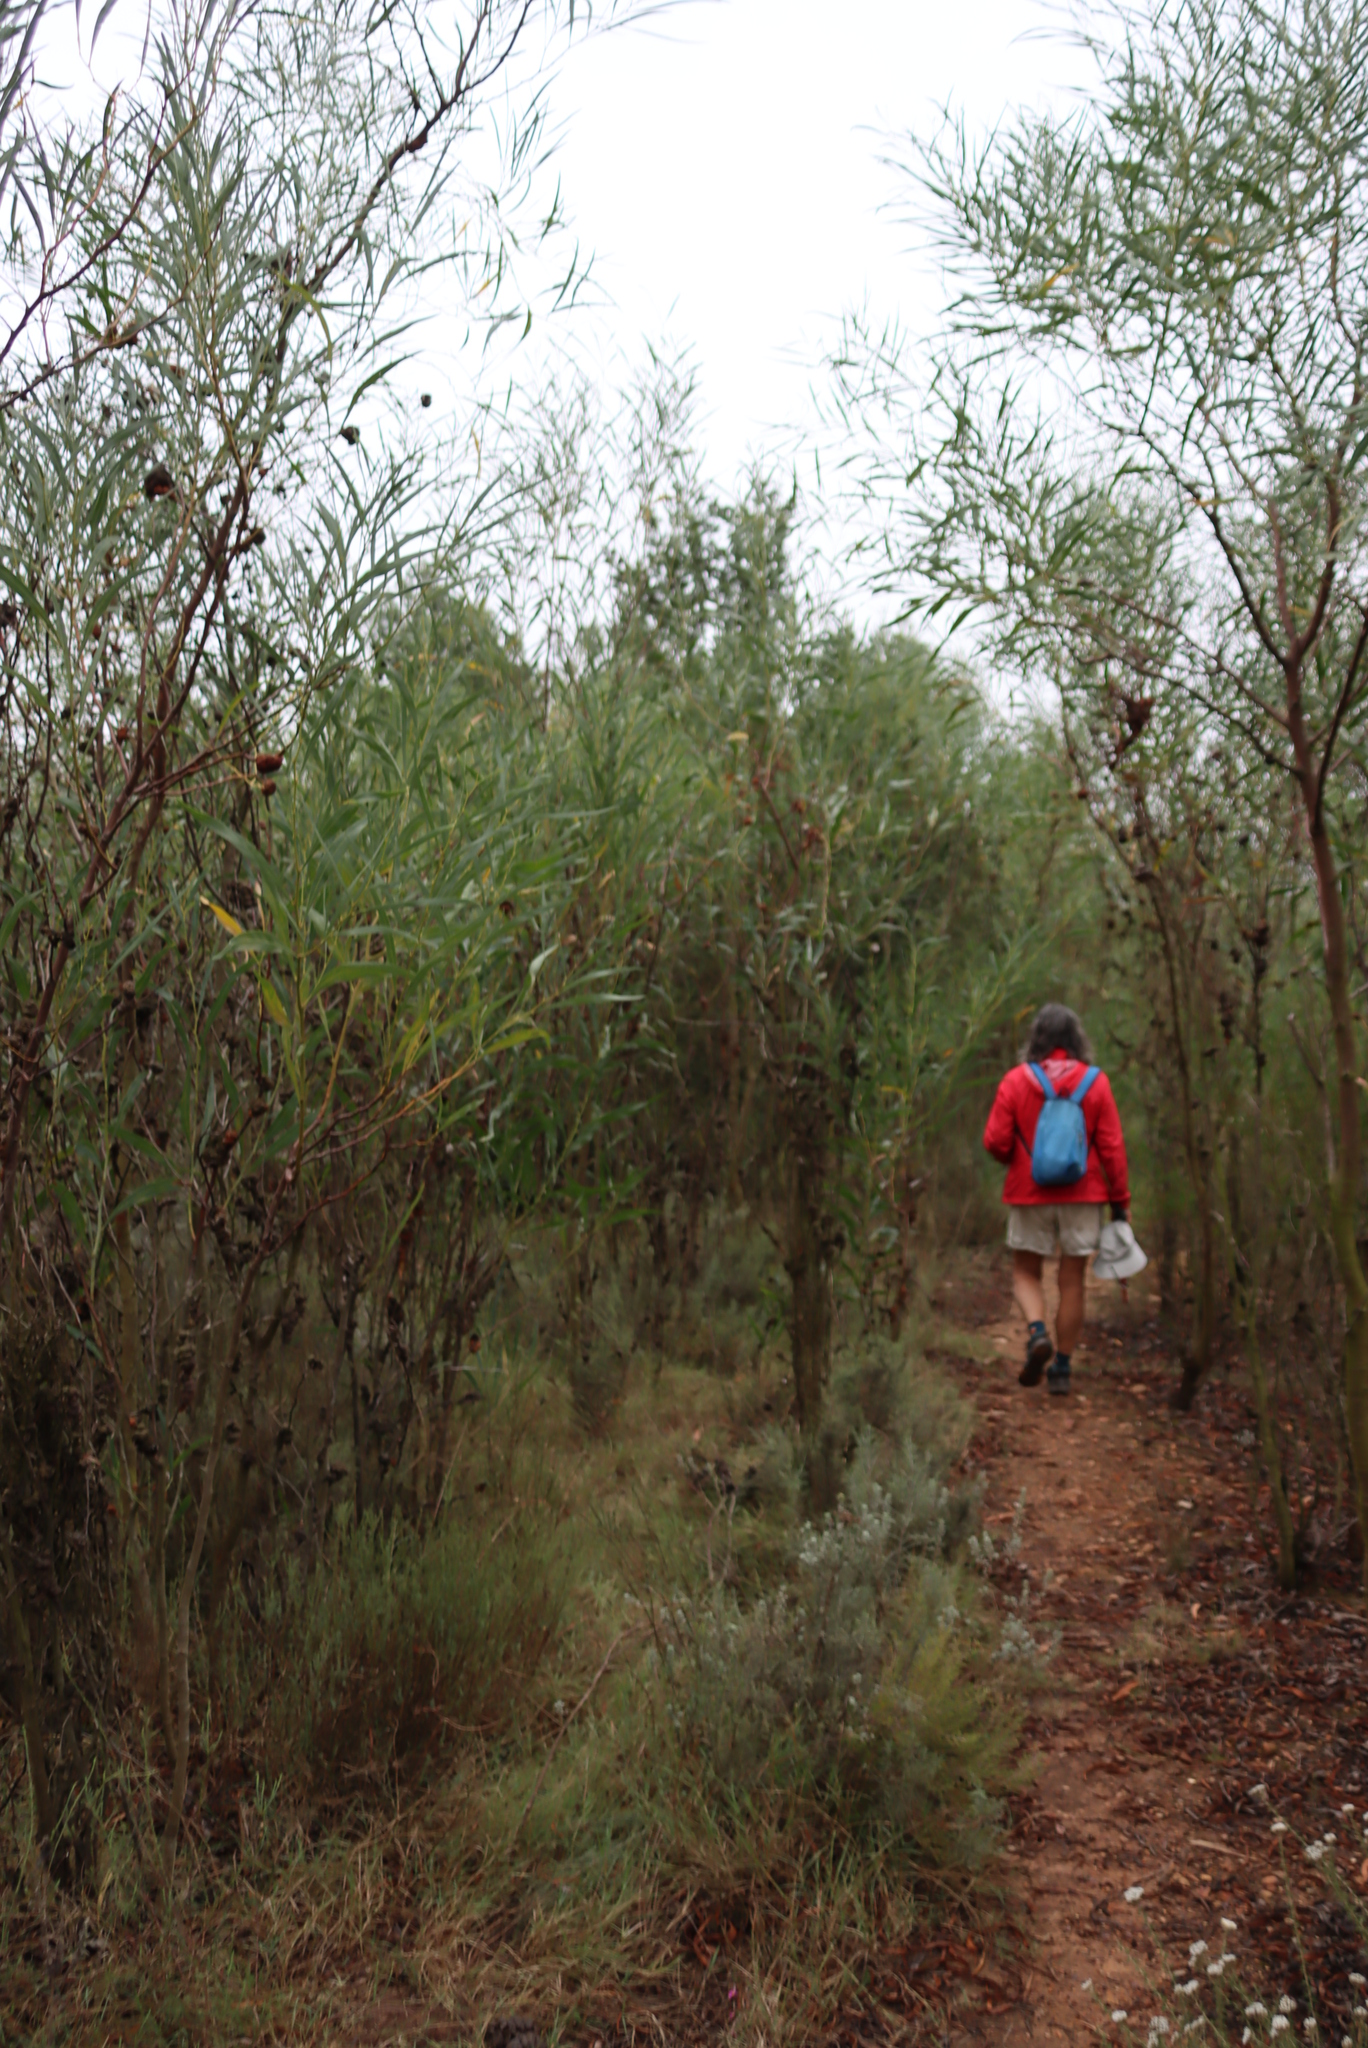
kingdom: Plantae
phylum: Tracheophyta
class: Magnoliopsida
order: Fabales
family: Fabaceae
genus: Acacia
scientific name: Acacia saligna
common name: Orange wattle
